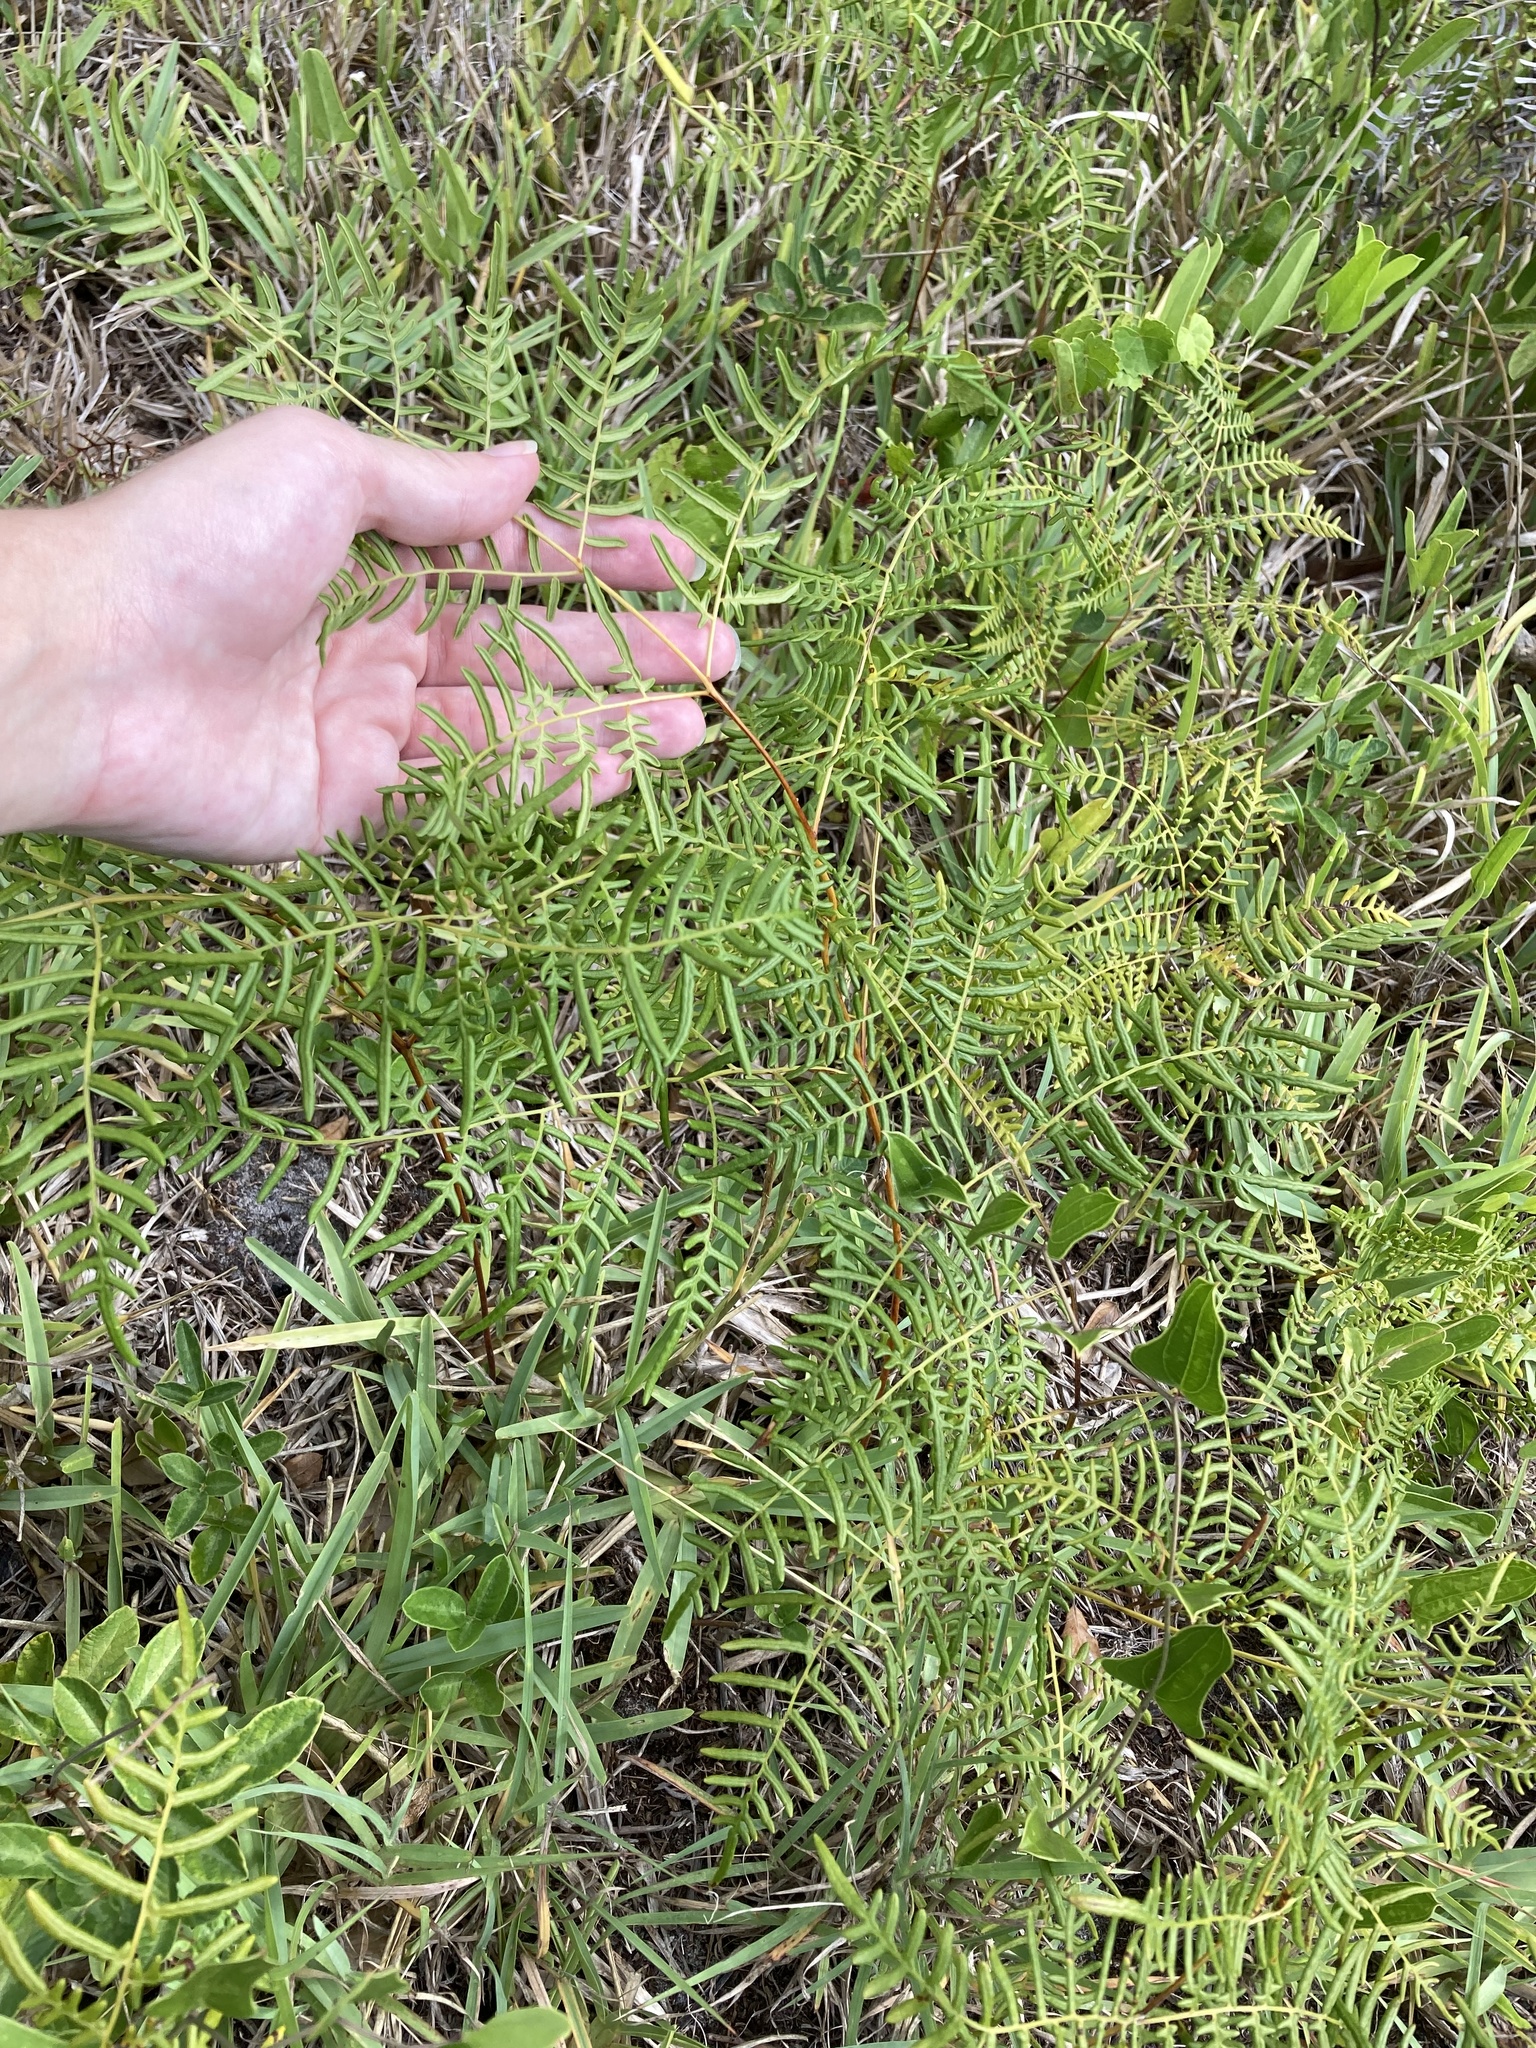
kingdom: Plantae
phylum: Tracheophyta
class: Polypodiopsida
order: Polypodiales
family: Dennstaedtiaceae
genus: Pteridium
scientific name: Pteridium caudatum
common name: Southern bracken fern
